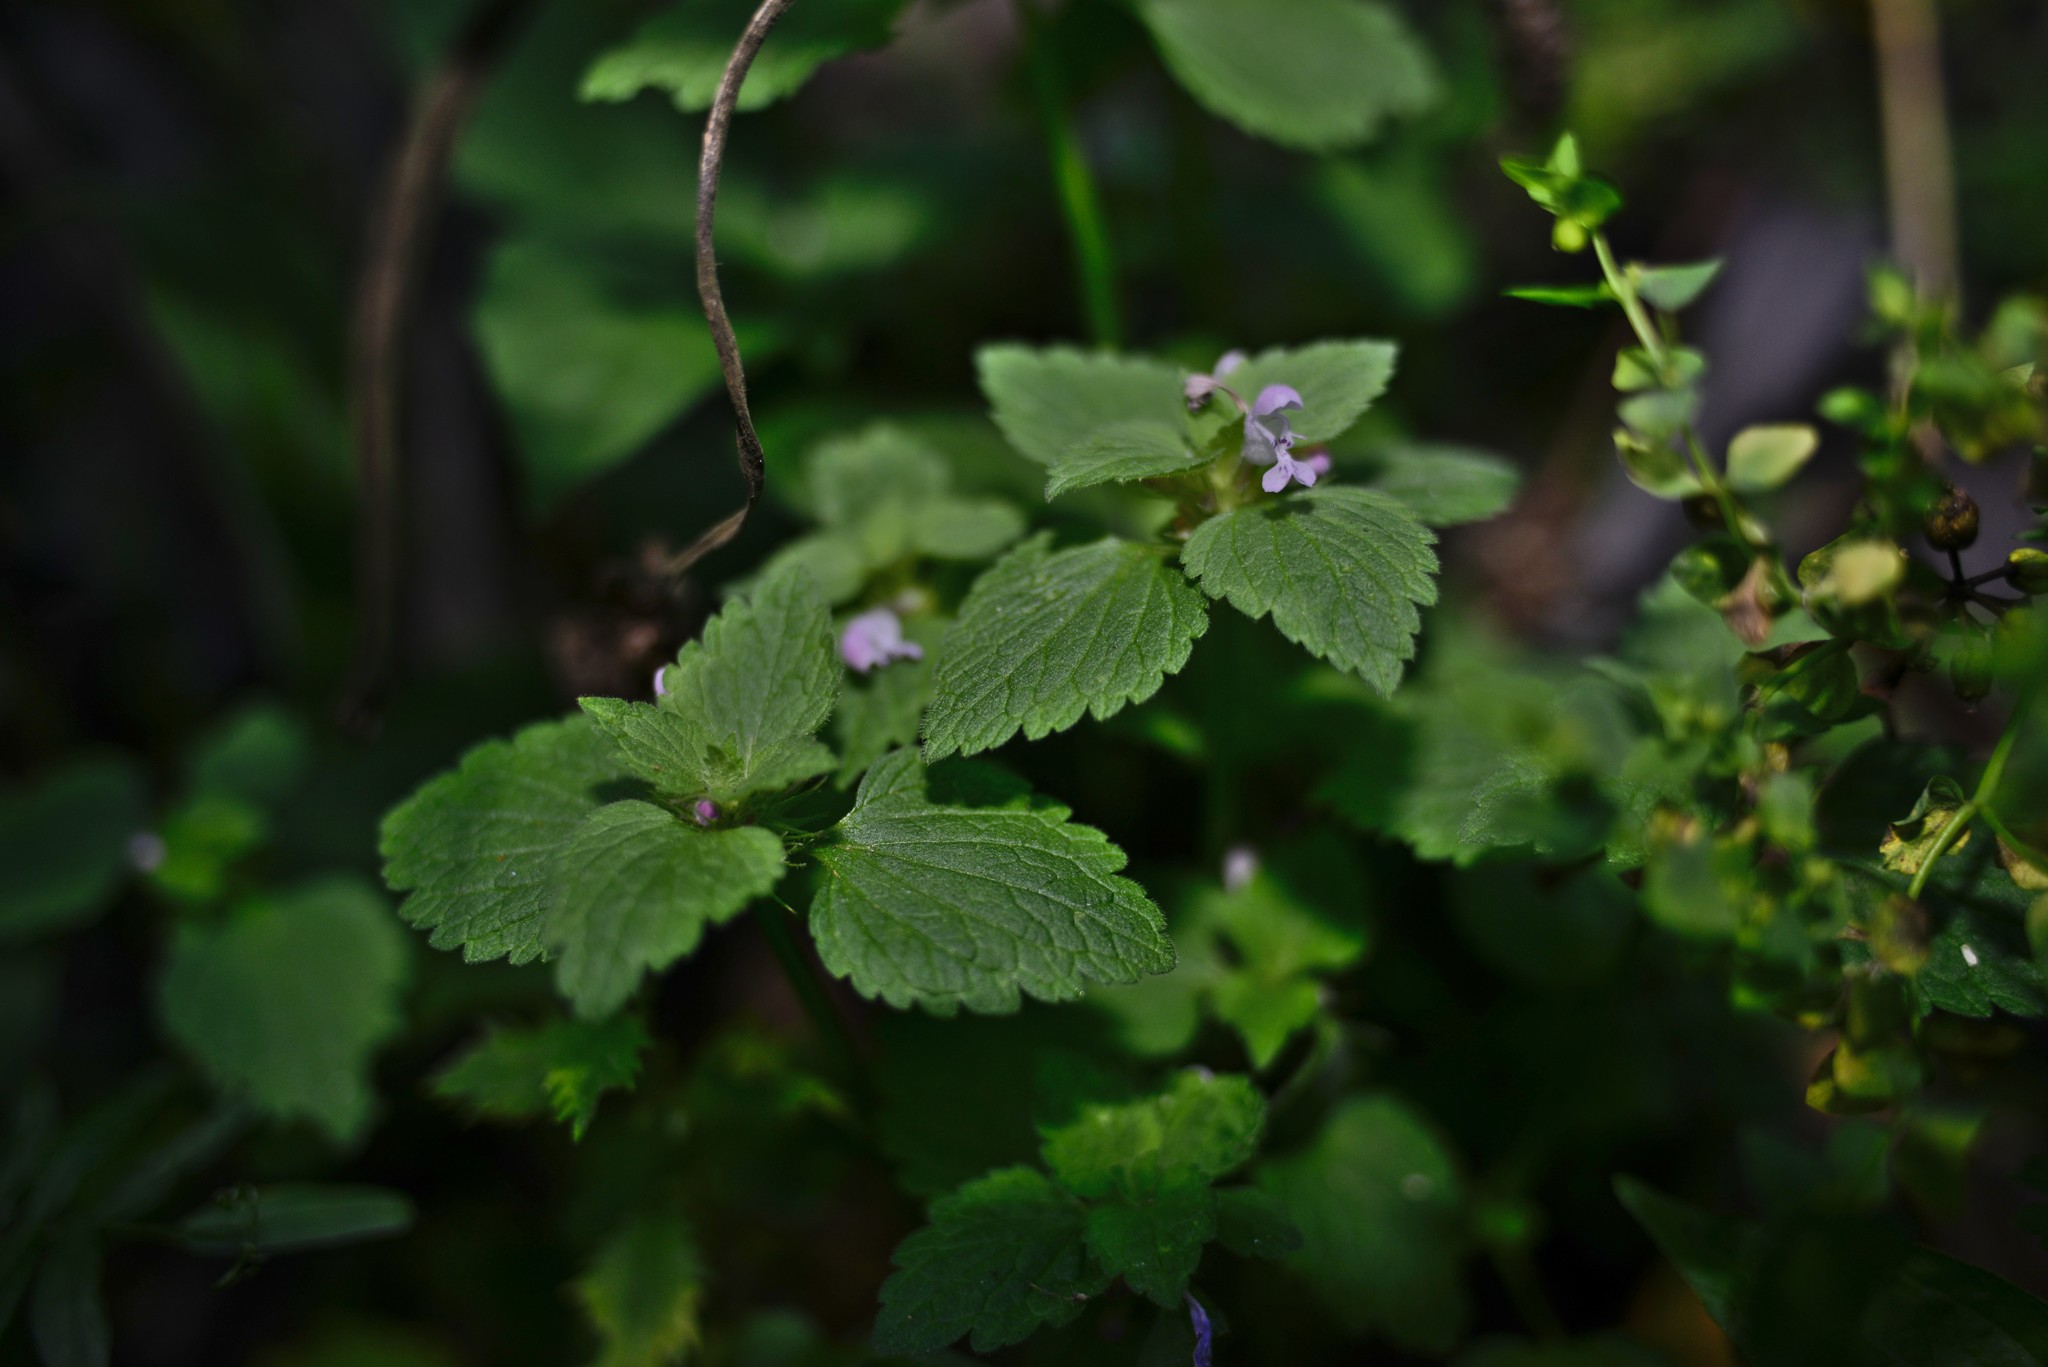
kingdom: Plantae
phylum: Tracheophyta
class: Magnoliopsida
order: Lamiales
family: Lamiaceae
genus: Lamium
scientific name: Lamium purpureum
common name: Red dead-nettle
